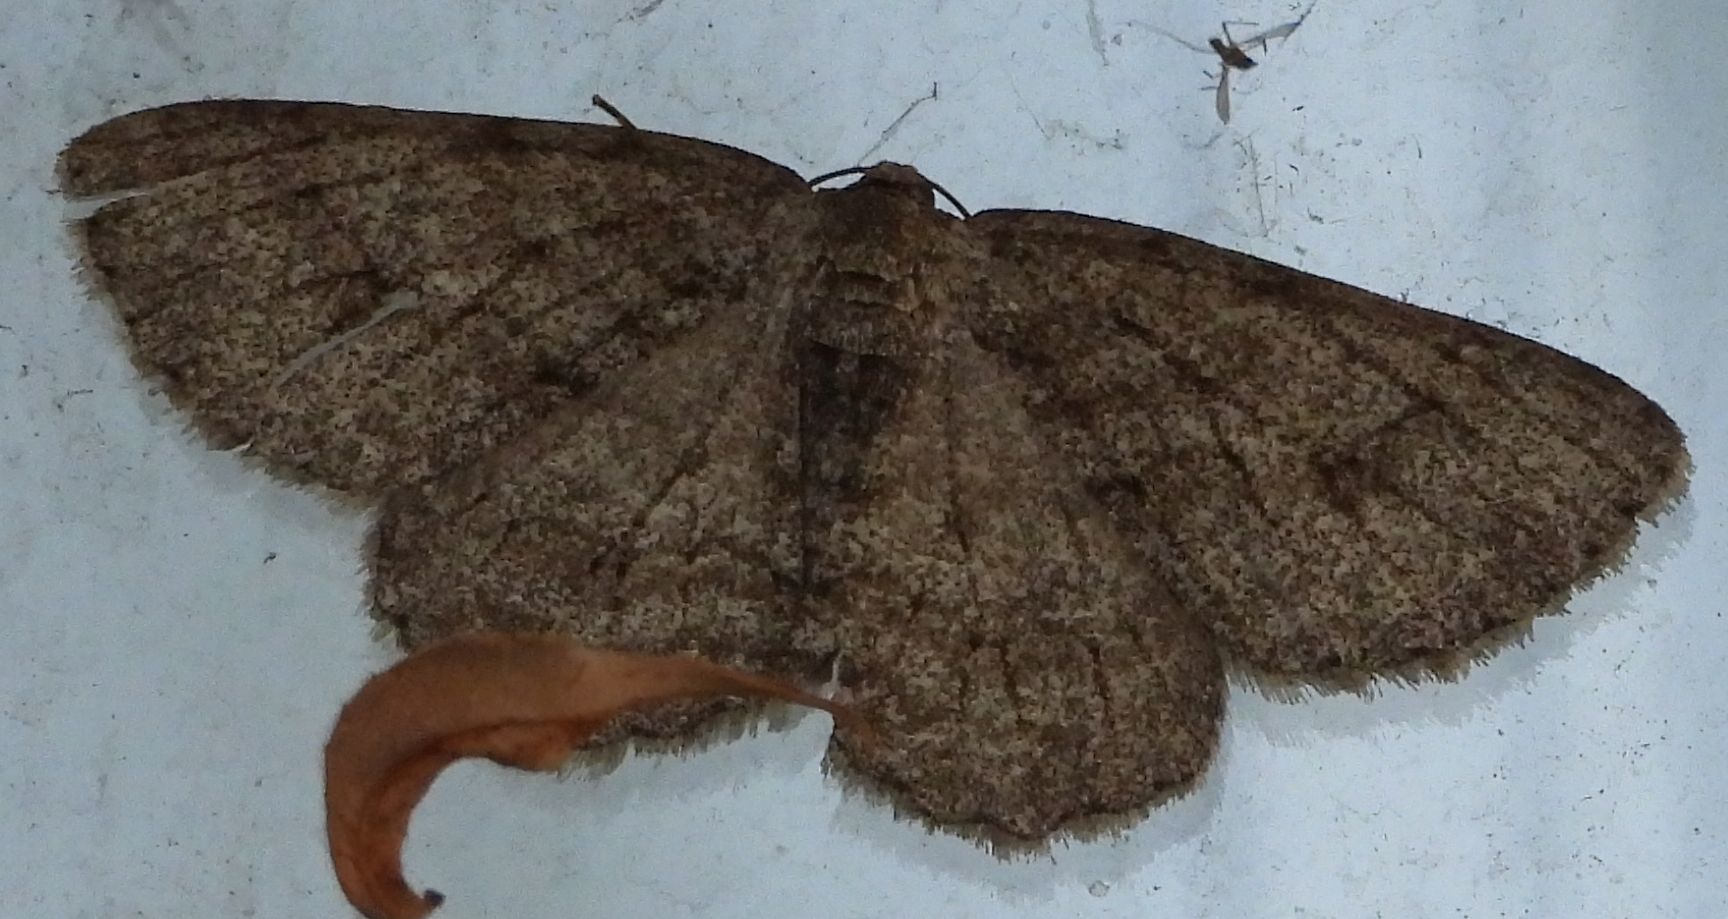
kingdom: Animalia
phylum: Arthropoda
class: Insecta
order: Lepidoptera
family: Geometridae
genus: Ectropis
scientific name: Ectropis crepuscularia
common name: Engrailed
